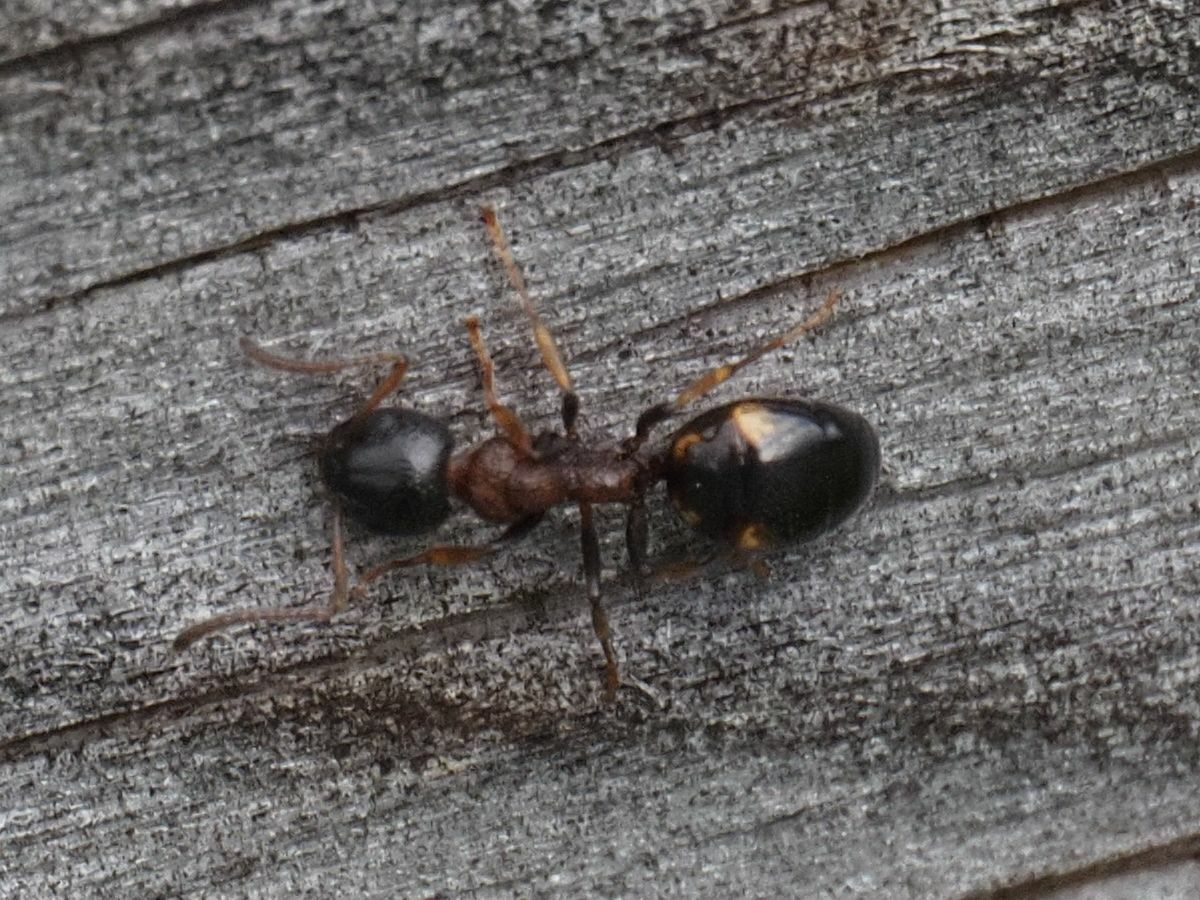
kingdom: Animalia
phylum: Arthropoda
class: Insecta
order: Hymenoptera
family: Formicidae
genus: Dolichoderus
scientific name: Dolichoderus quadripunctatus
